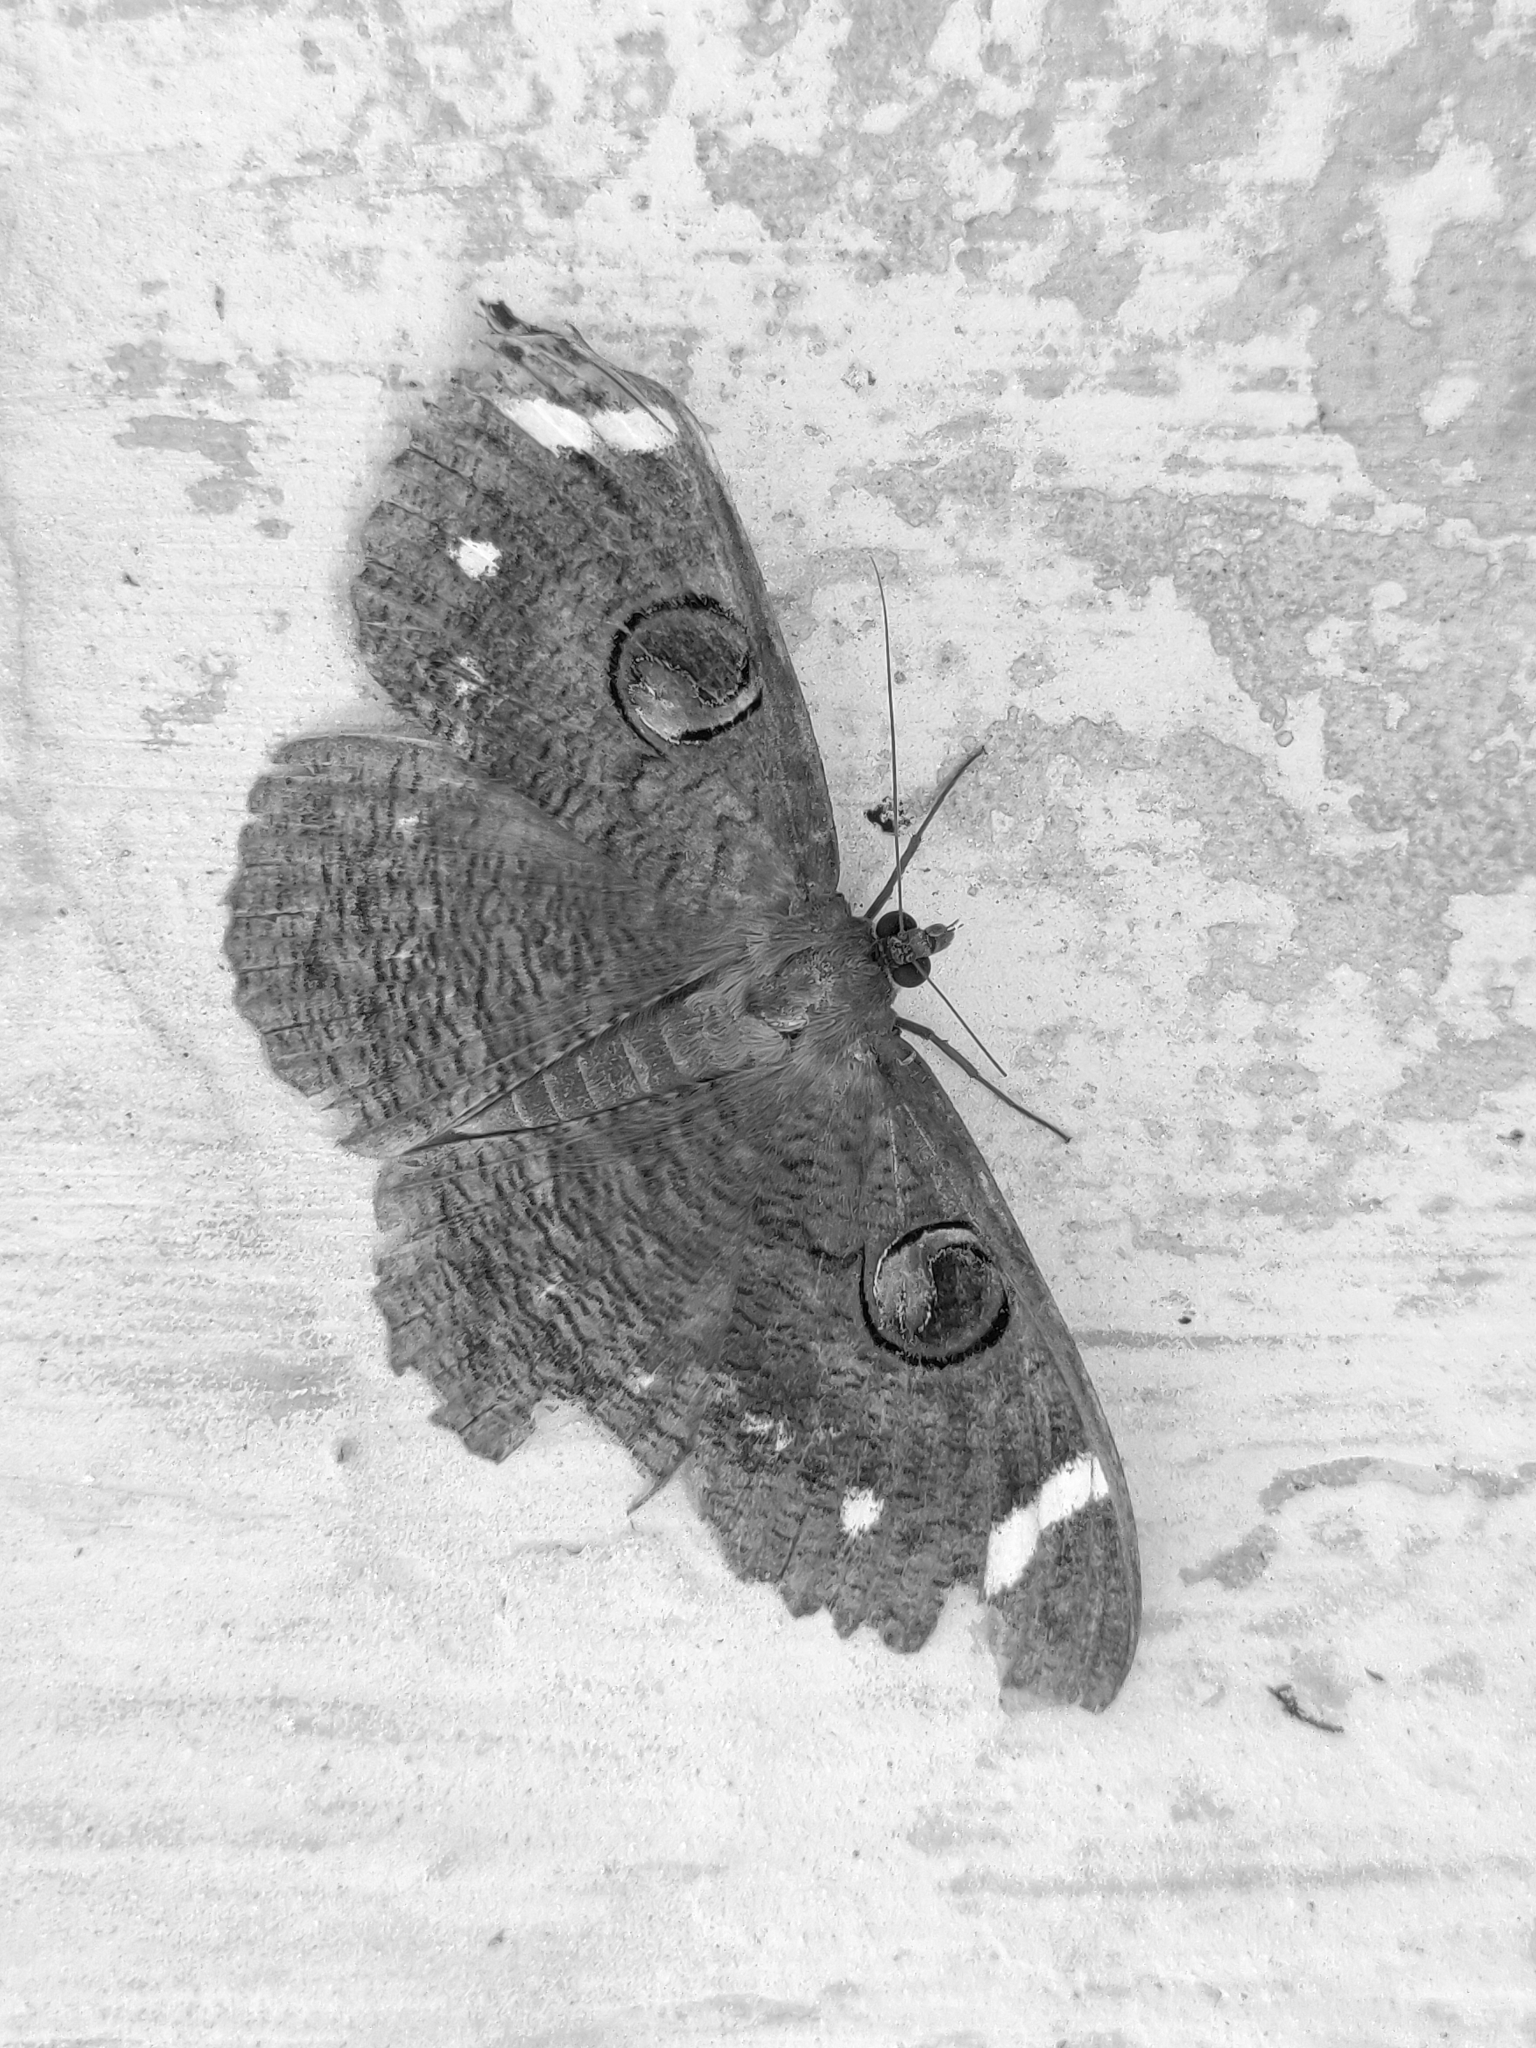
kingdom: Animalia
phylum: Arthropoda
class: Insecta
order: Lepidoptera
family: Erebidae
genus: Erebus
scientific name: Erebus hieroglyphica
